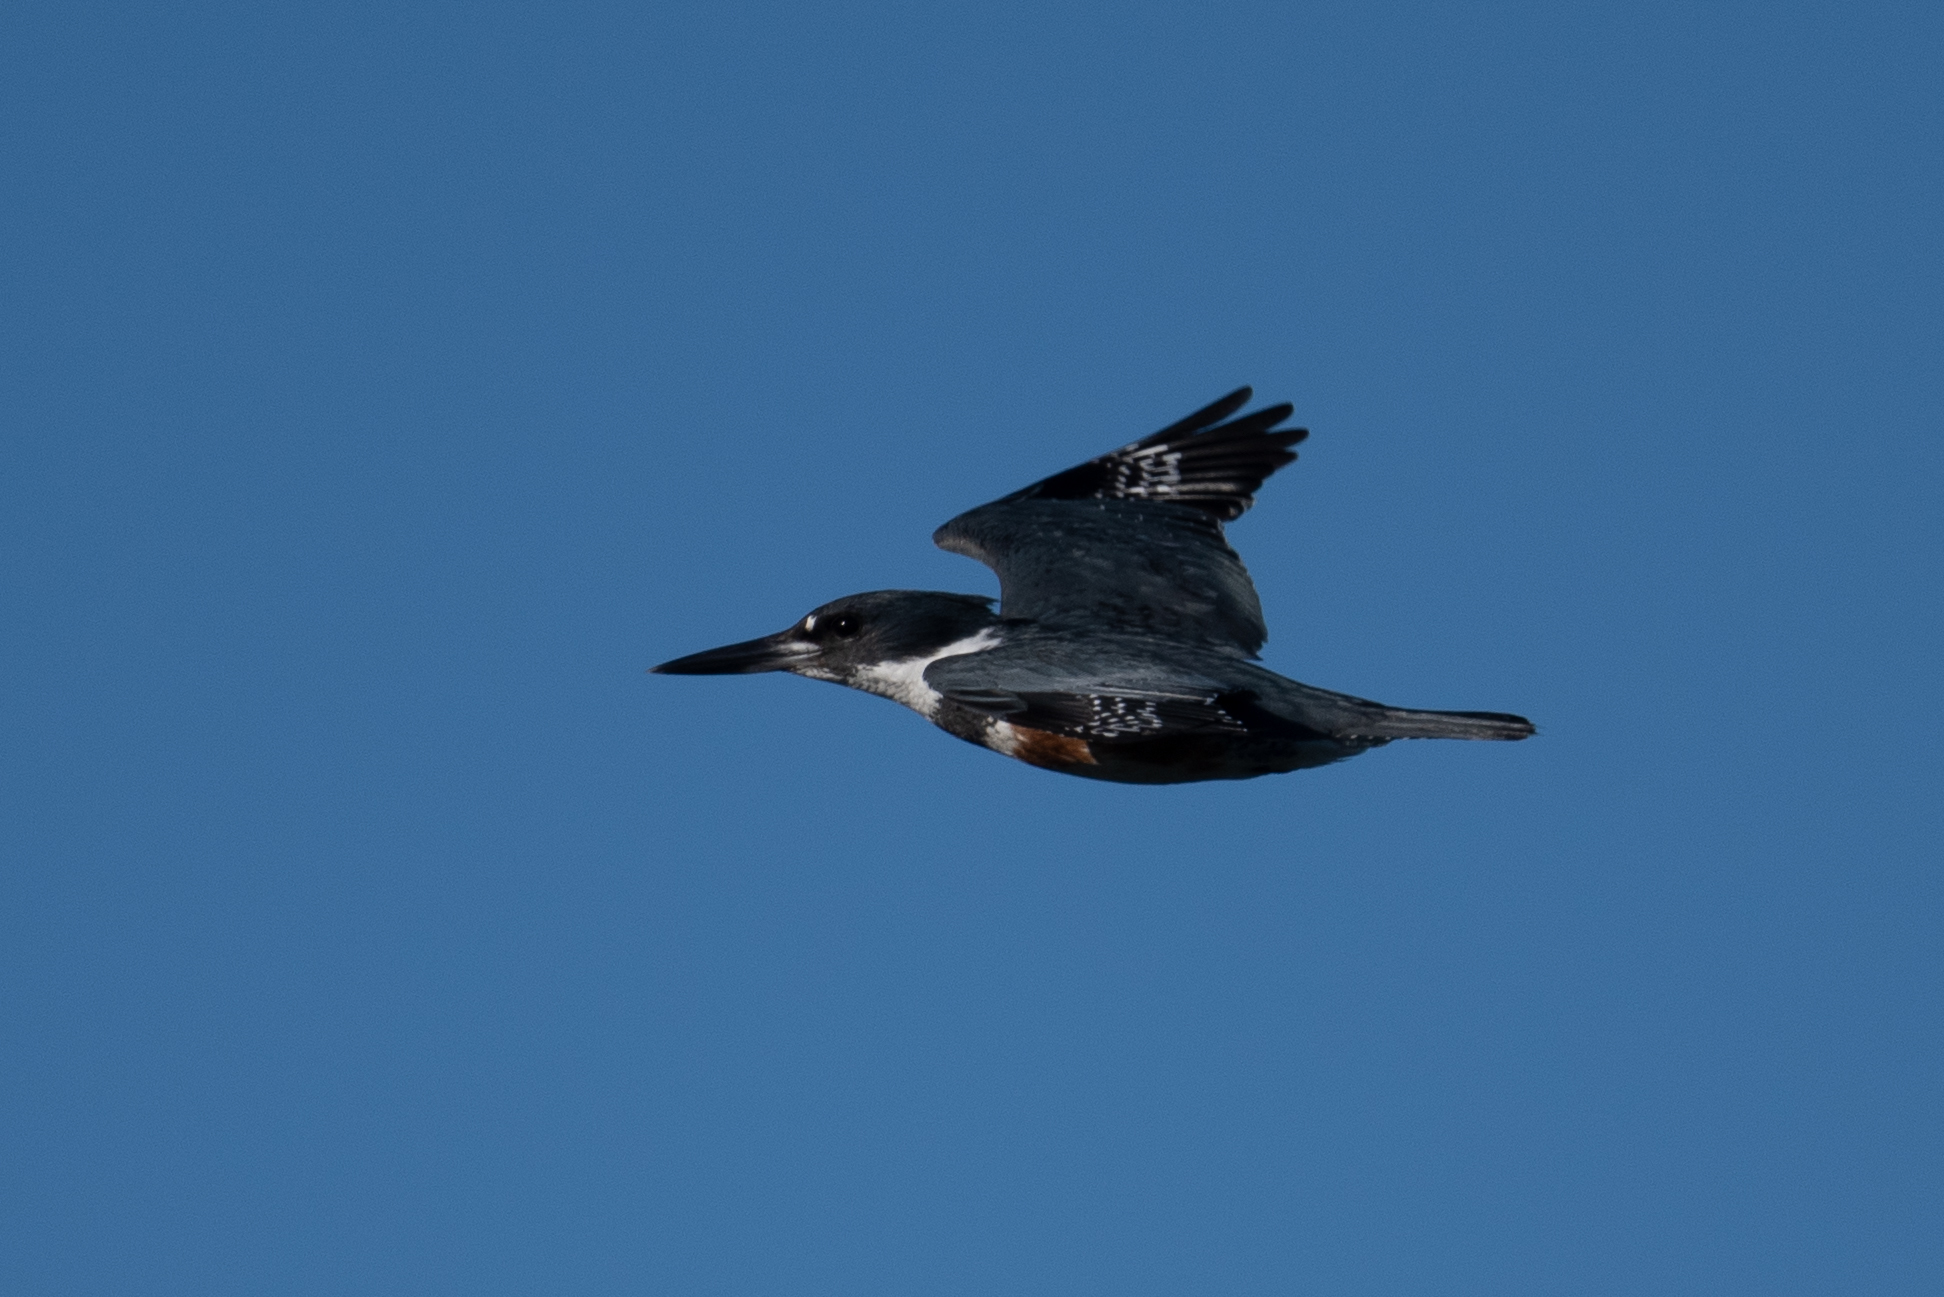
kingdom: Animalia
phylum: Chordata
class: Aves
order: Coraciiformes
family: Alcedinidae
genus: Megaceryle
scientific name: Megaceryle alcyon
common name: Belted kingfisher
